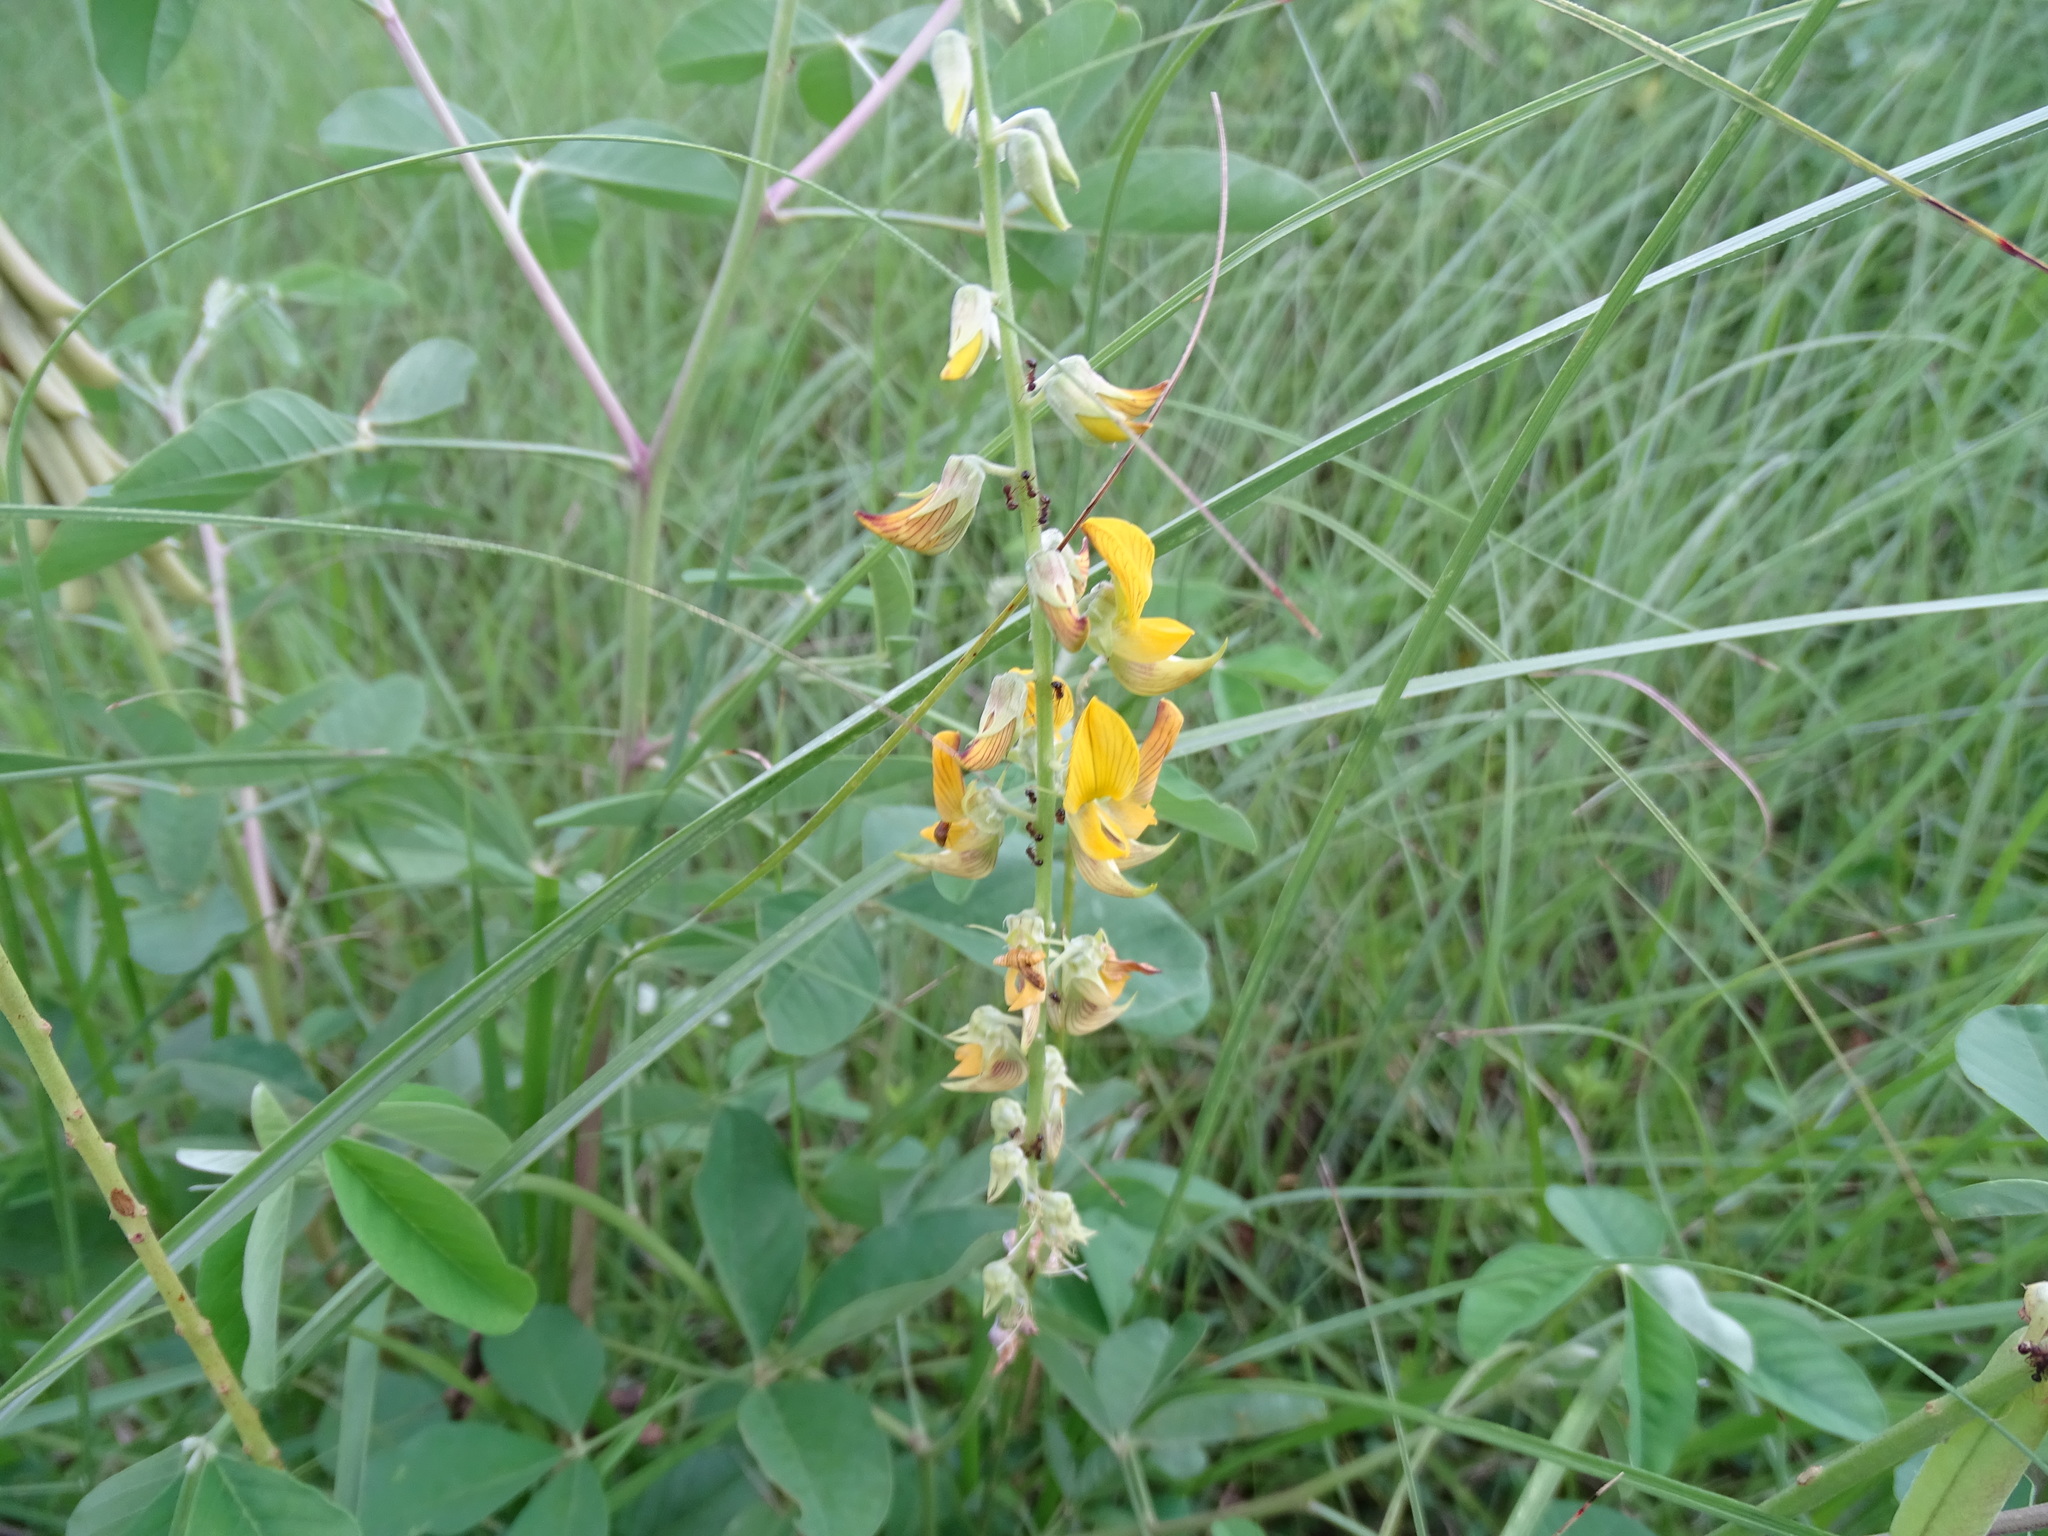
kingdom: Plantae
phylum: Tracheophyta
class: Magnoliopsida
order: Fabales
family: Fabaceae
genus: Crotalaria
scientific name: Crotalaria pallida
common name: Smooth rattlebox
